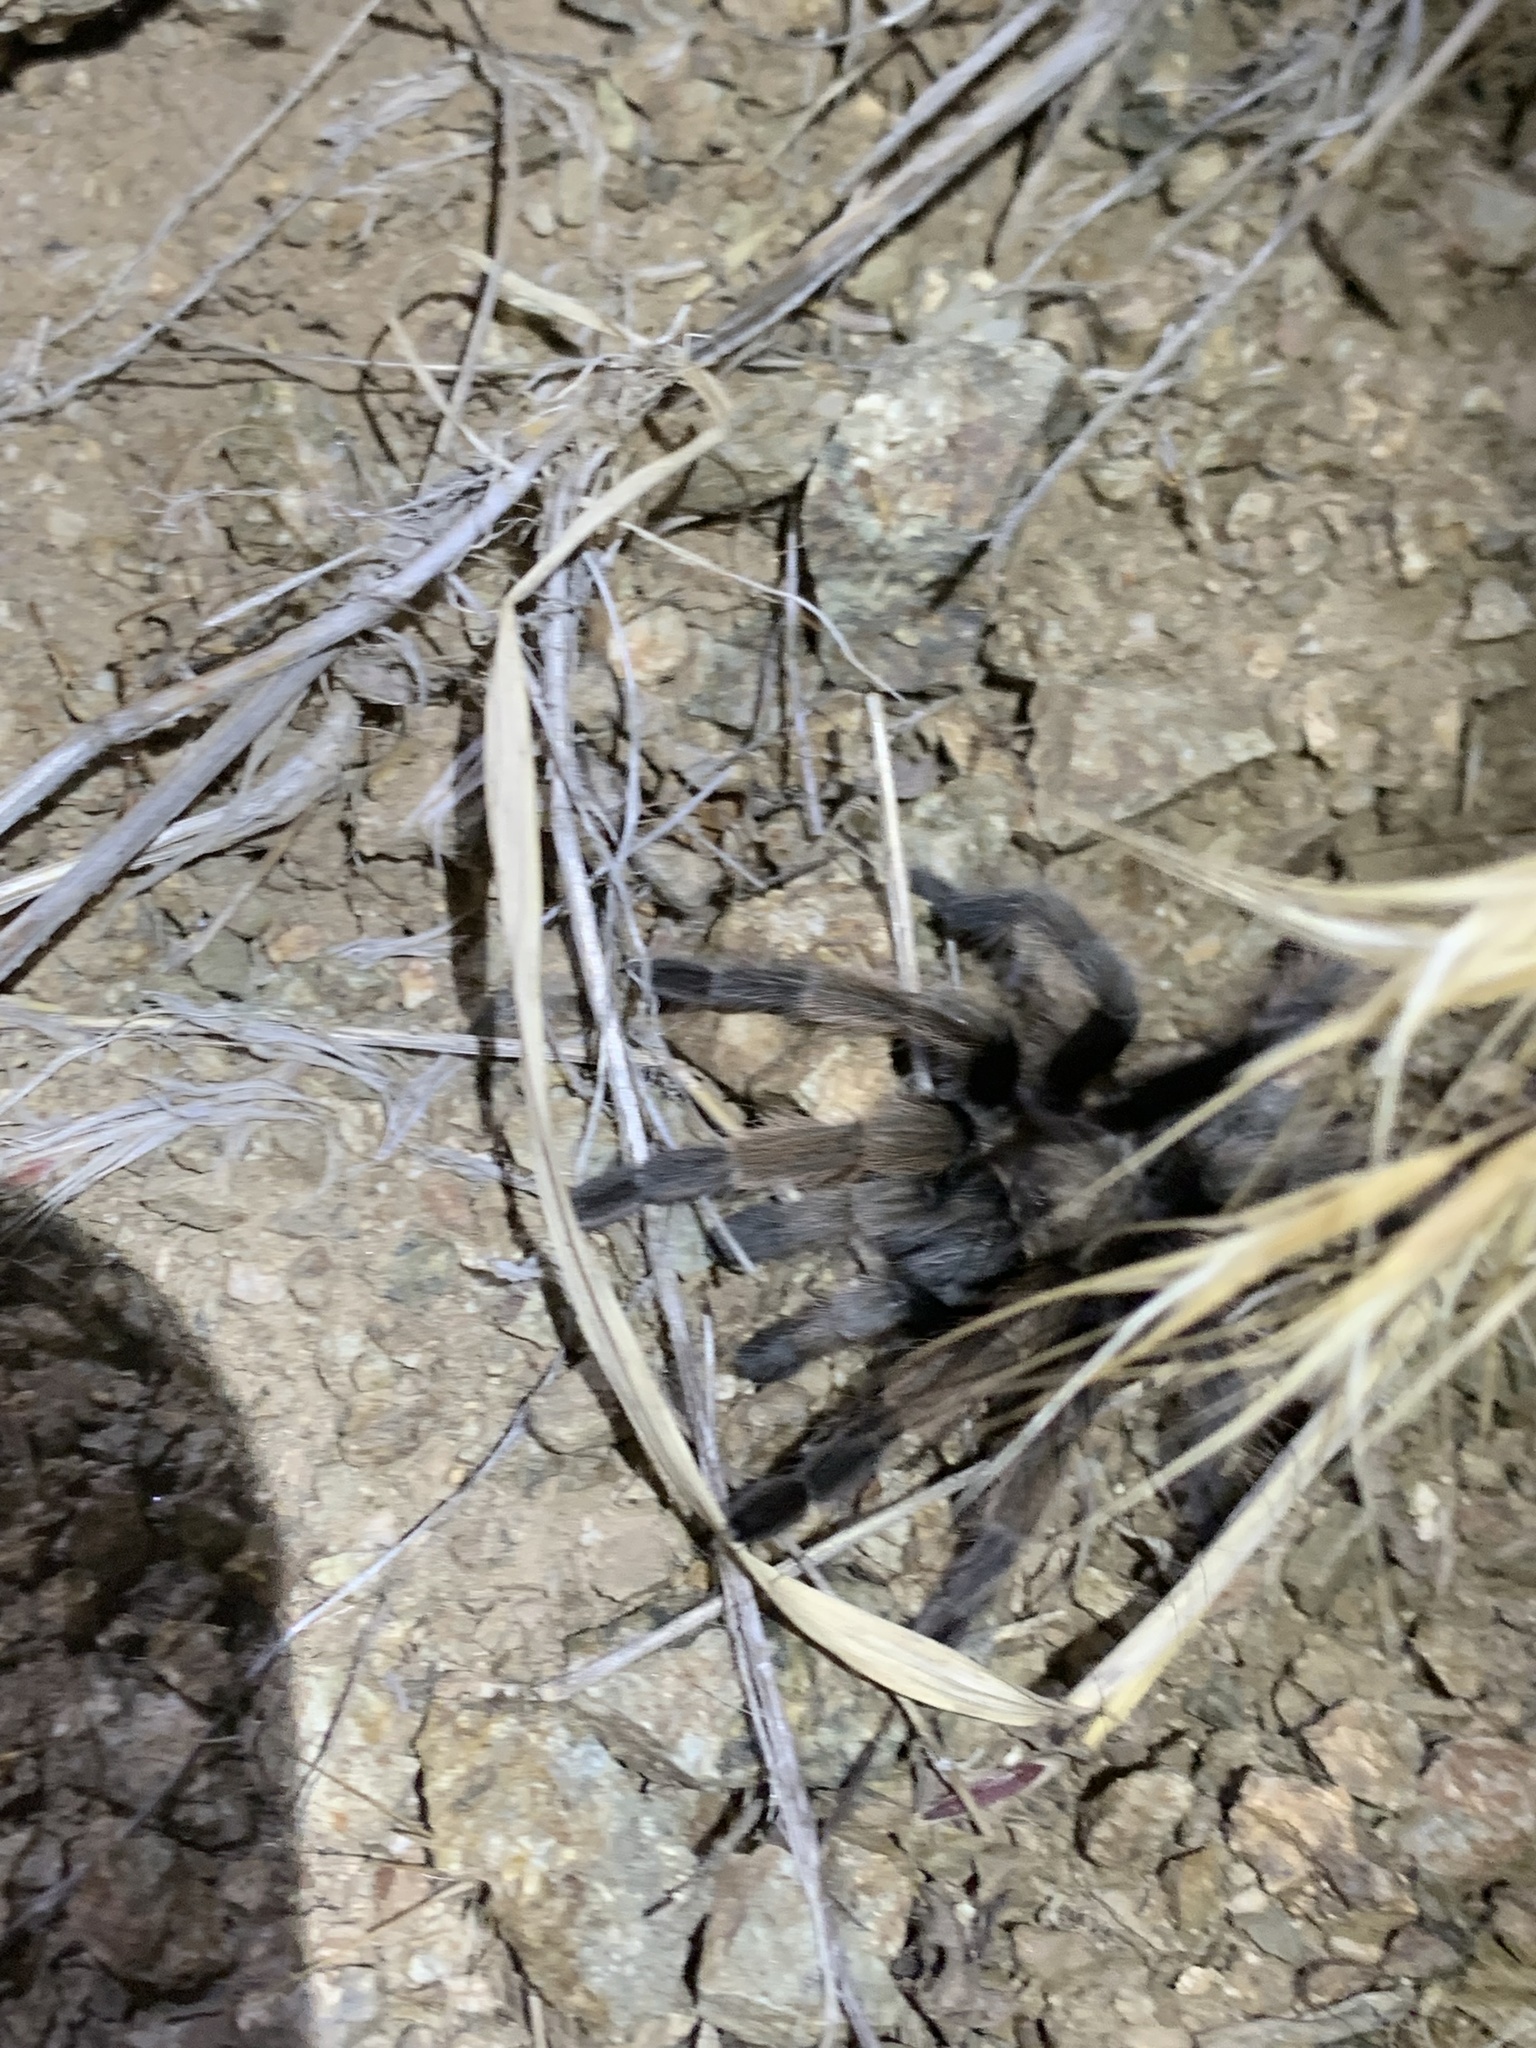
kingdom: Animalia
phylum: Arthropoda
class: Arachnida
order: Araneae
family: Theraphosidae
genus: Aphonopelma
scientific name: Aphonopelma iodius
